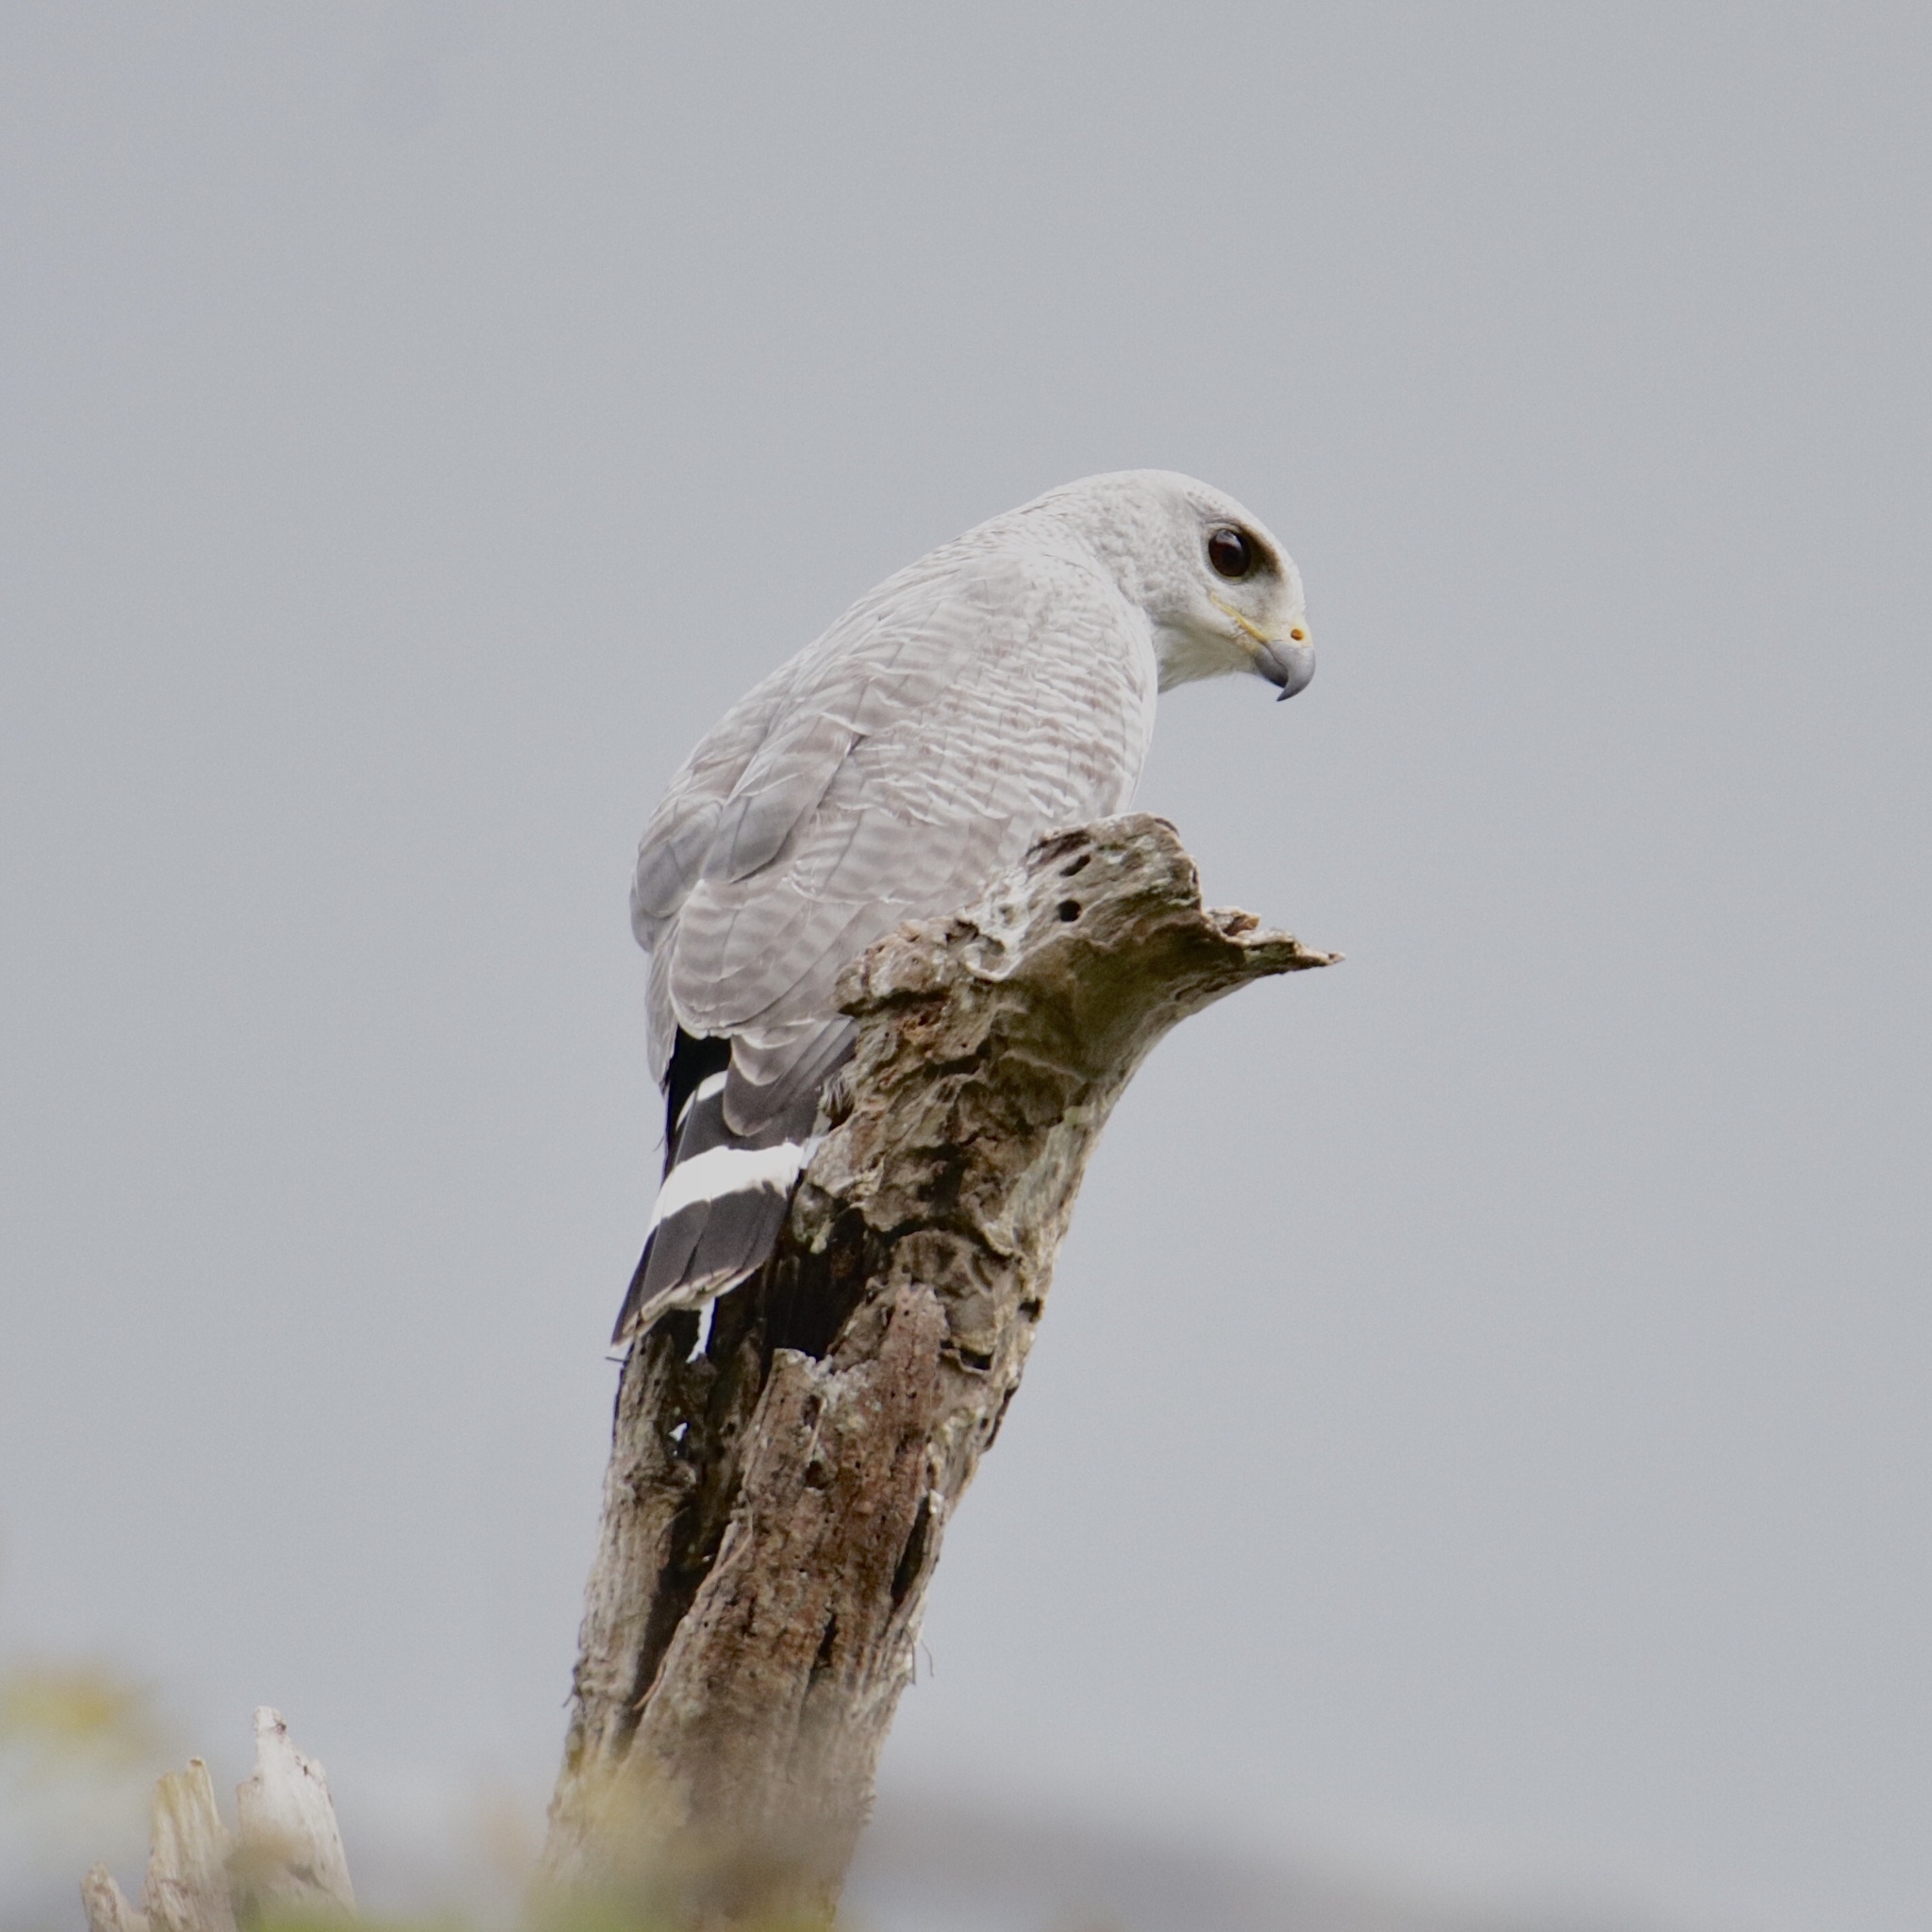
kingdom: Animalia
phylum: Chordata
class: Aves
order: Accipitriformes
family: Accipitridae
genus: Buteo
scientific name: Buteo nitidus
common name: Grey-lined hawk
